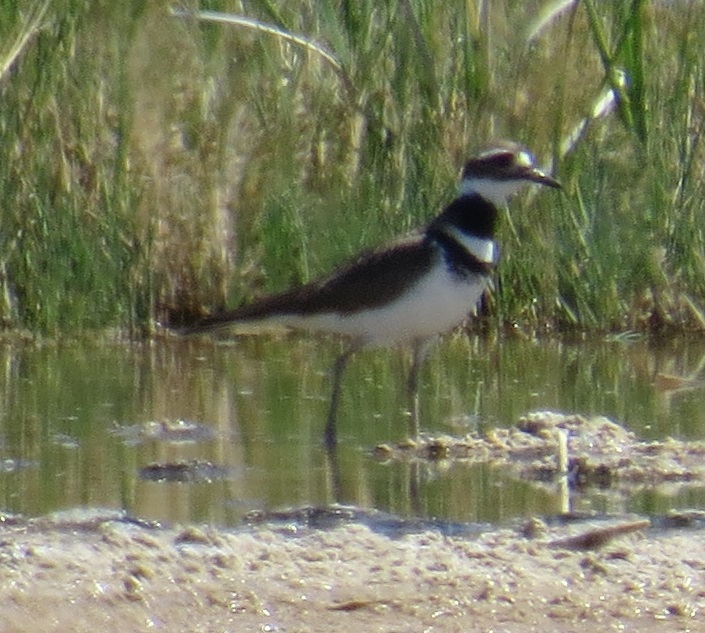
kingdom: Animalia
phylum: Chordata
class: Aves
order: Charadriiformes
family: Charadriidae
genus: Charadrius
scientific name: Charadrius vociferus
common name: Killdeer
